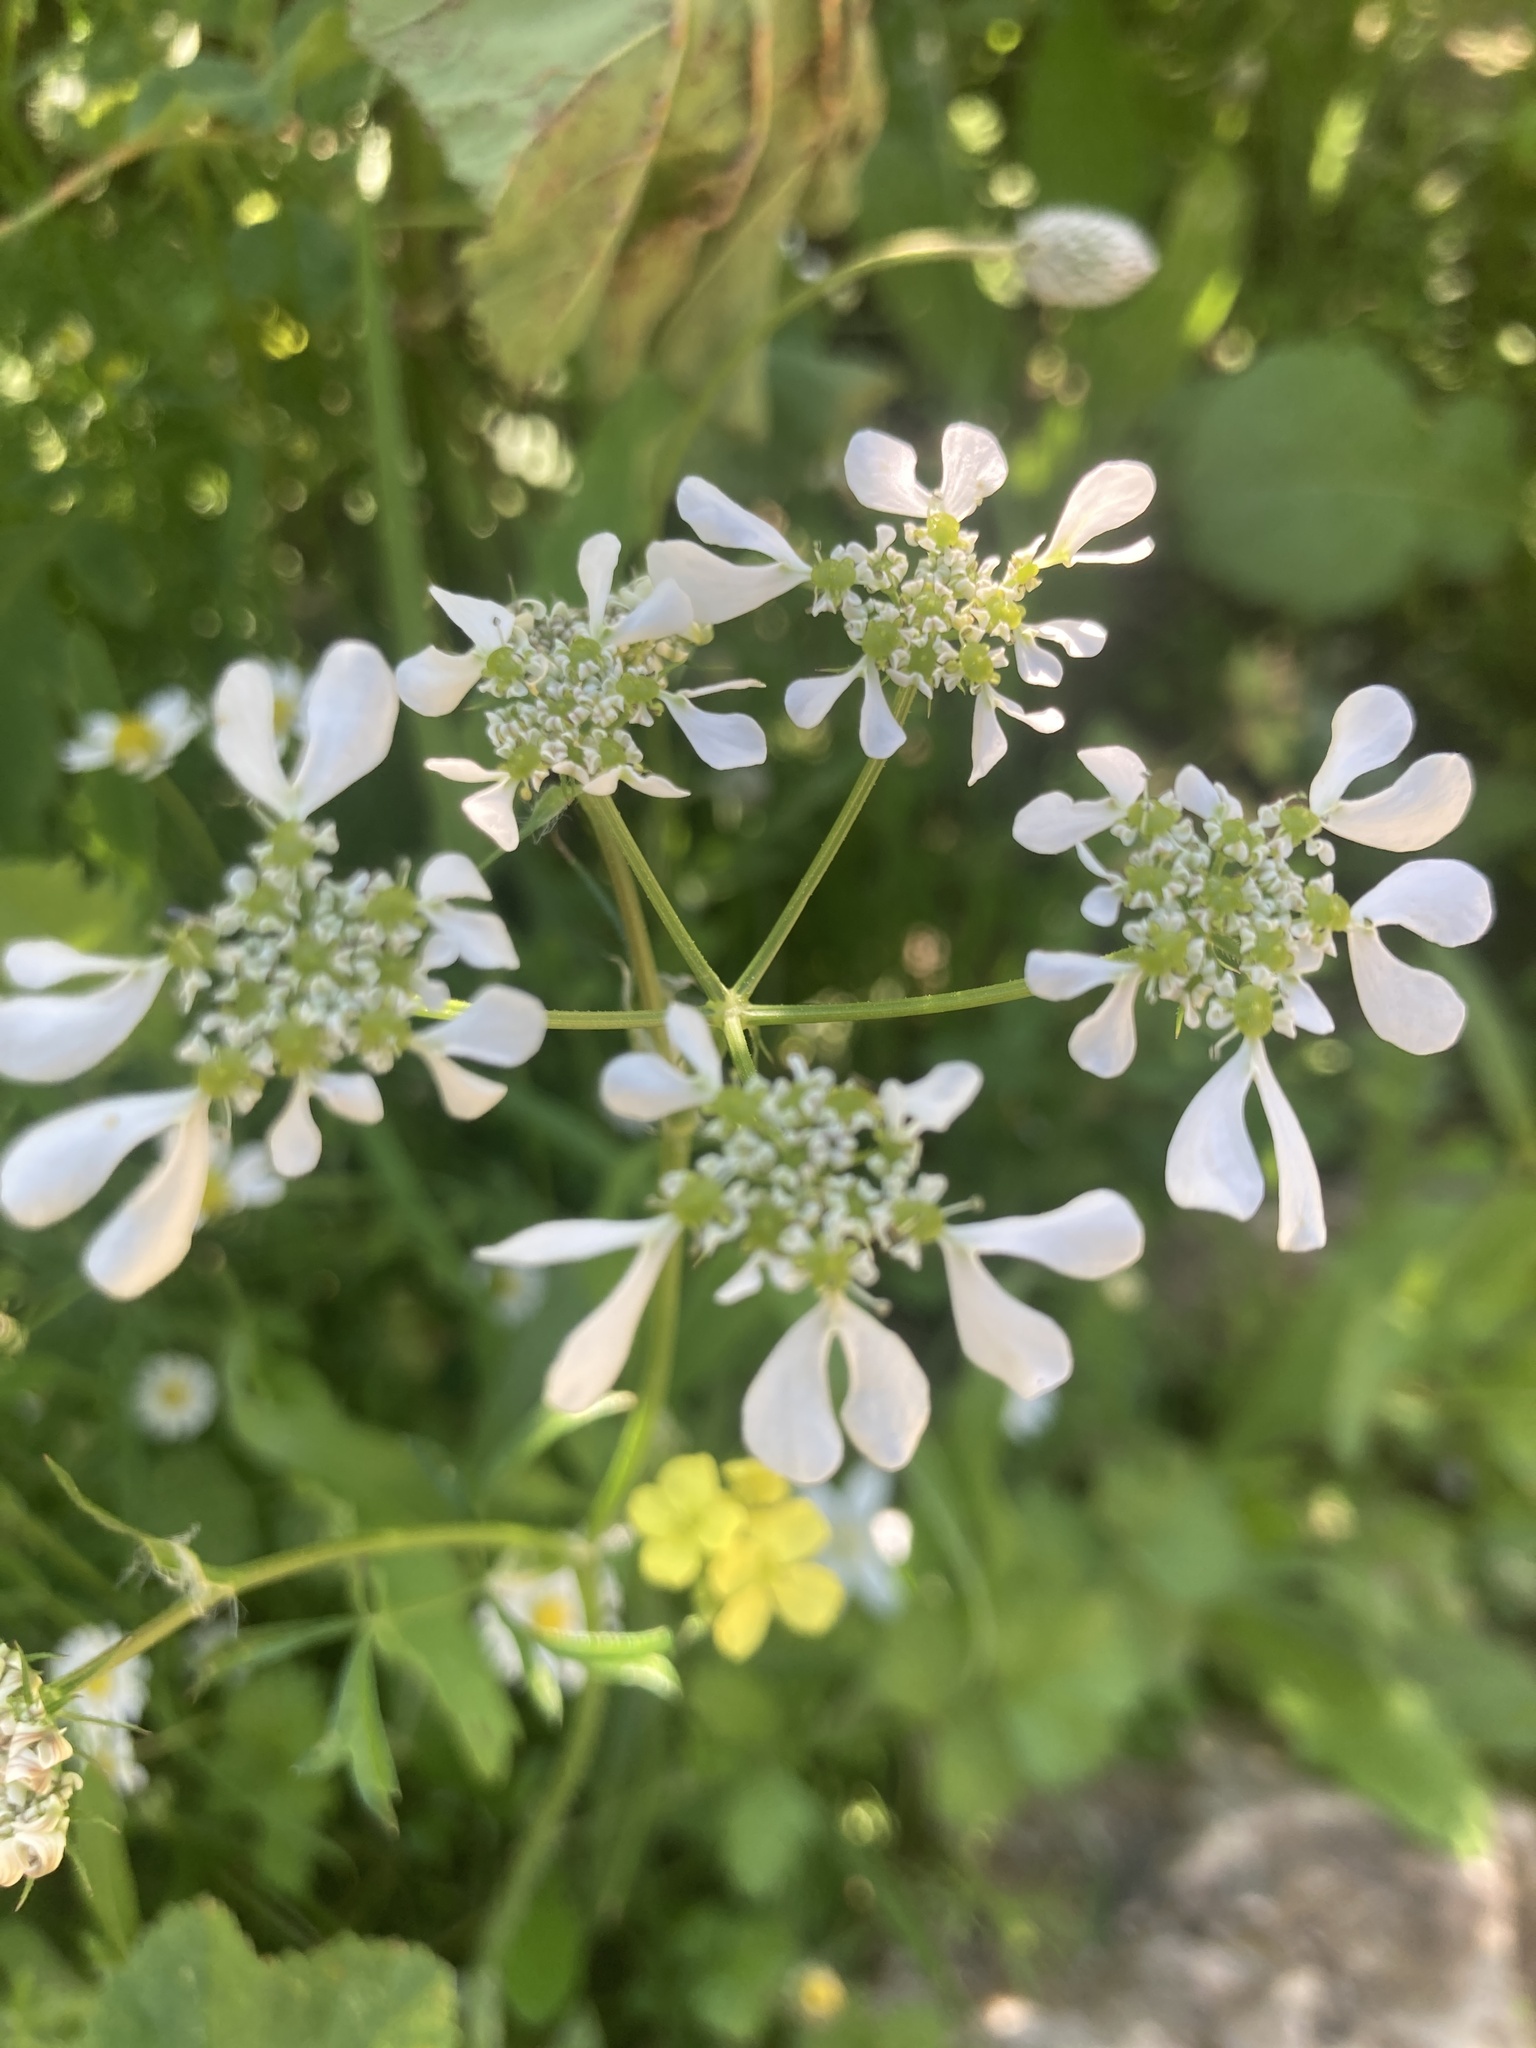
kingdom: Plantae
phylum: Tracheophyta
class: Magnoliopsida
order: Apiales
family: Apiaceae
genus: Tordylium
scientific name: Tordylium apulum
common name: Mediterranean hartwort
